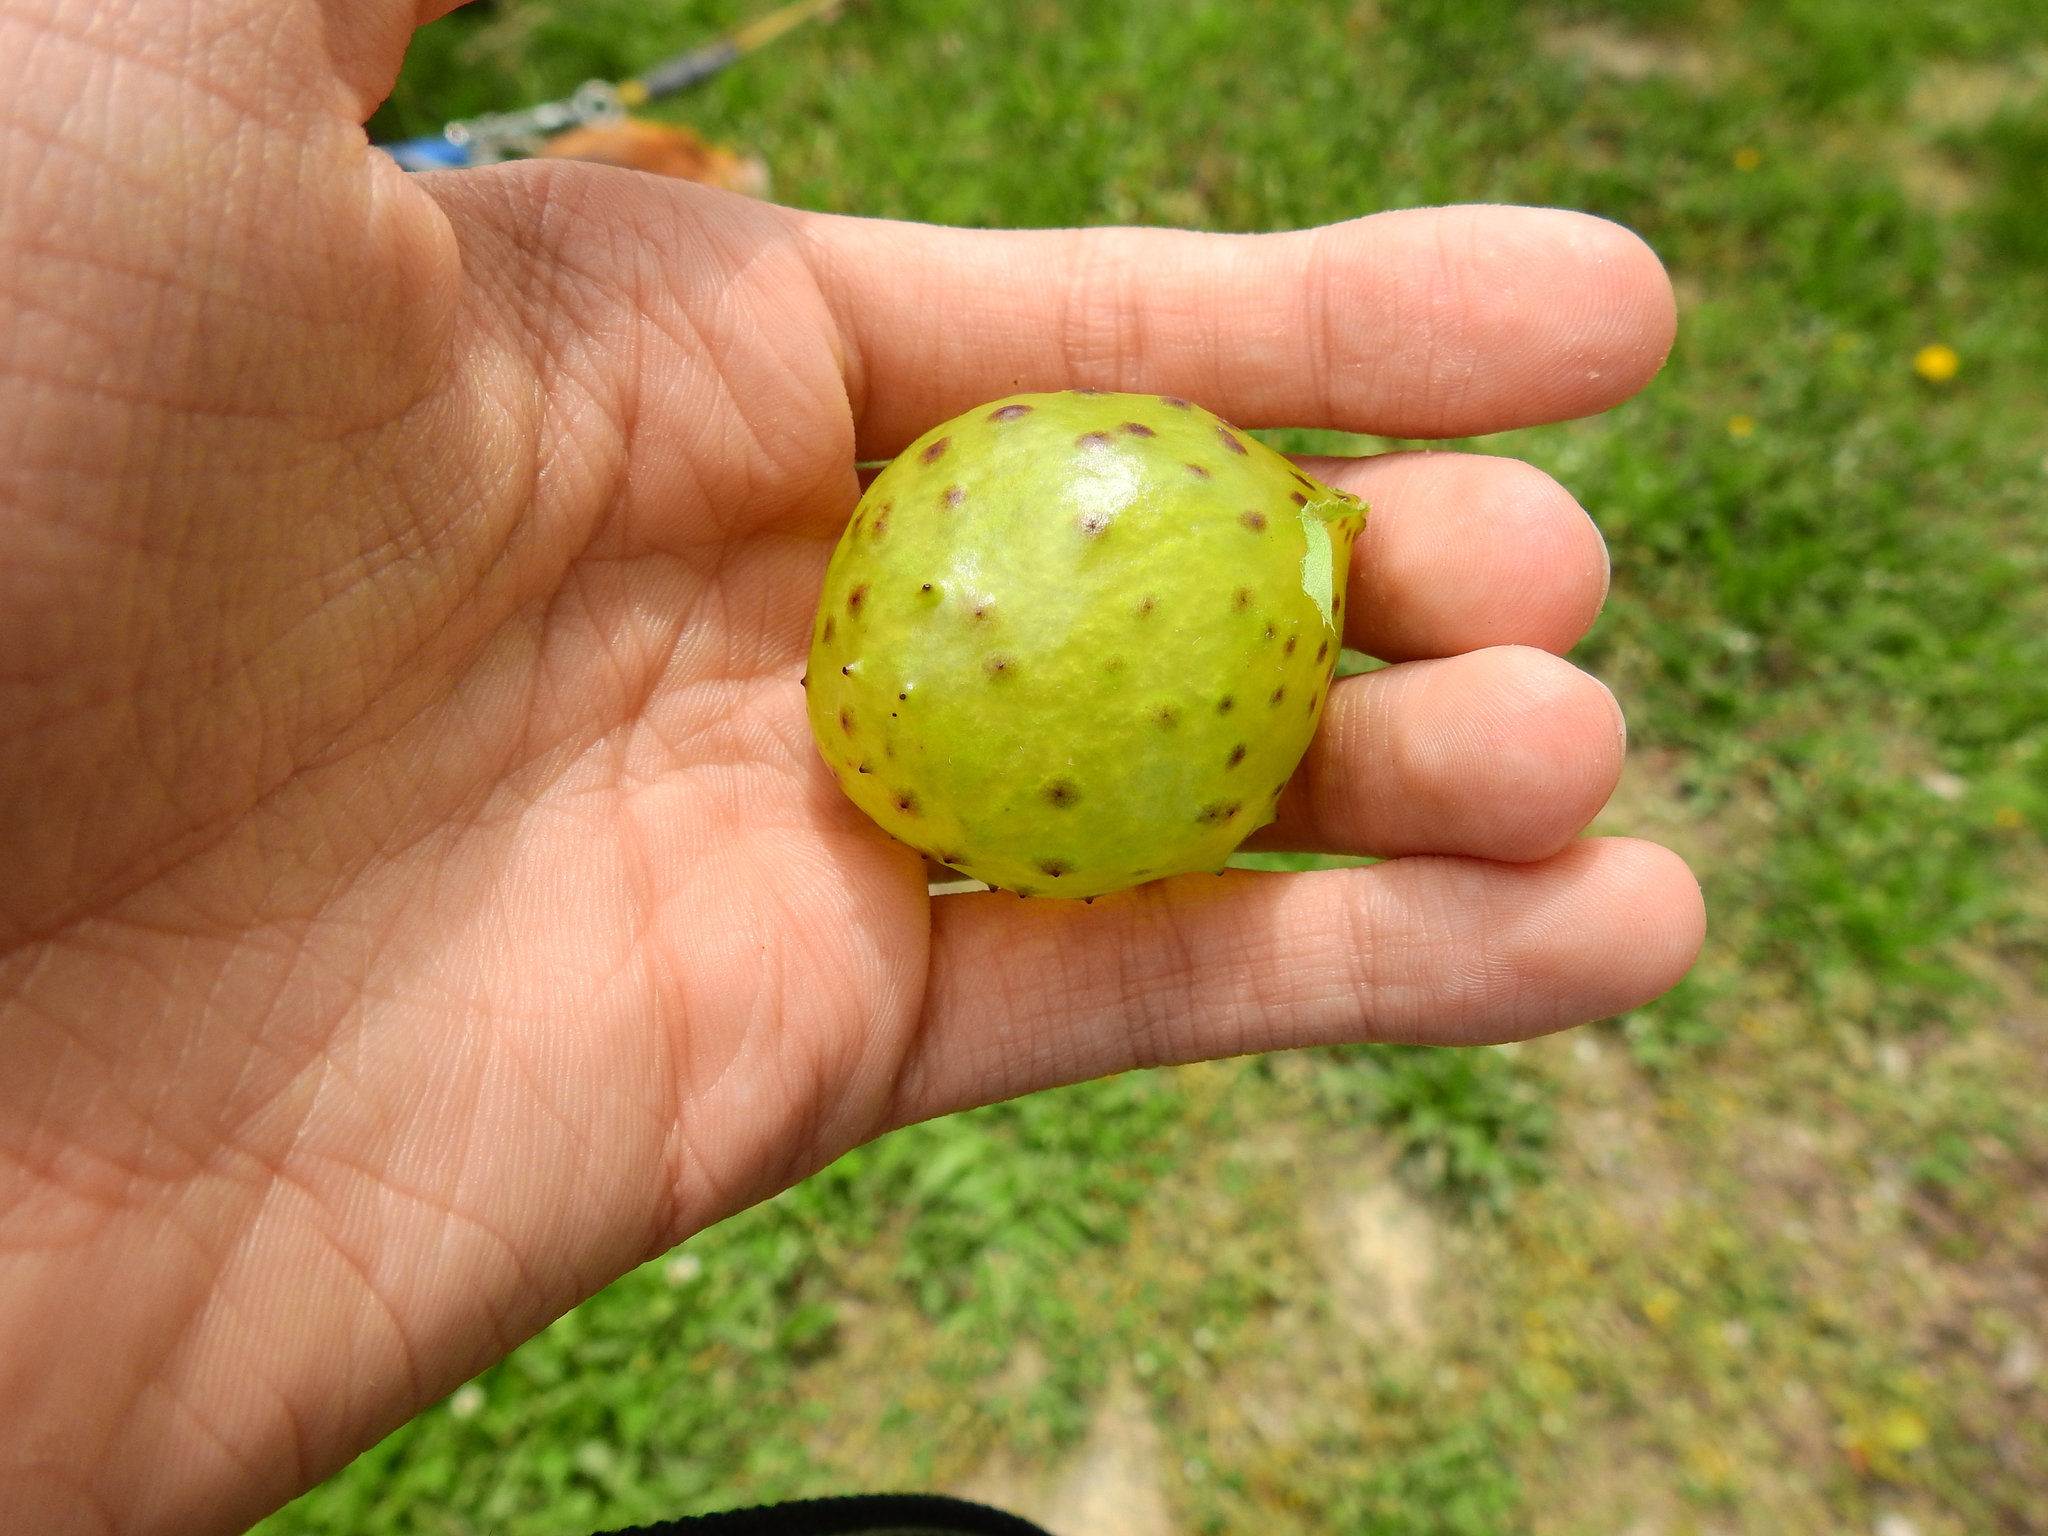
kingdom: Animalia
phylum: Arthropoda
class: Insecta
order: Hymenoptera
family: Cynipidae
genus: Amphibolips
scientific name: Amphibolips
